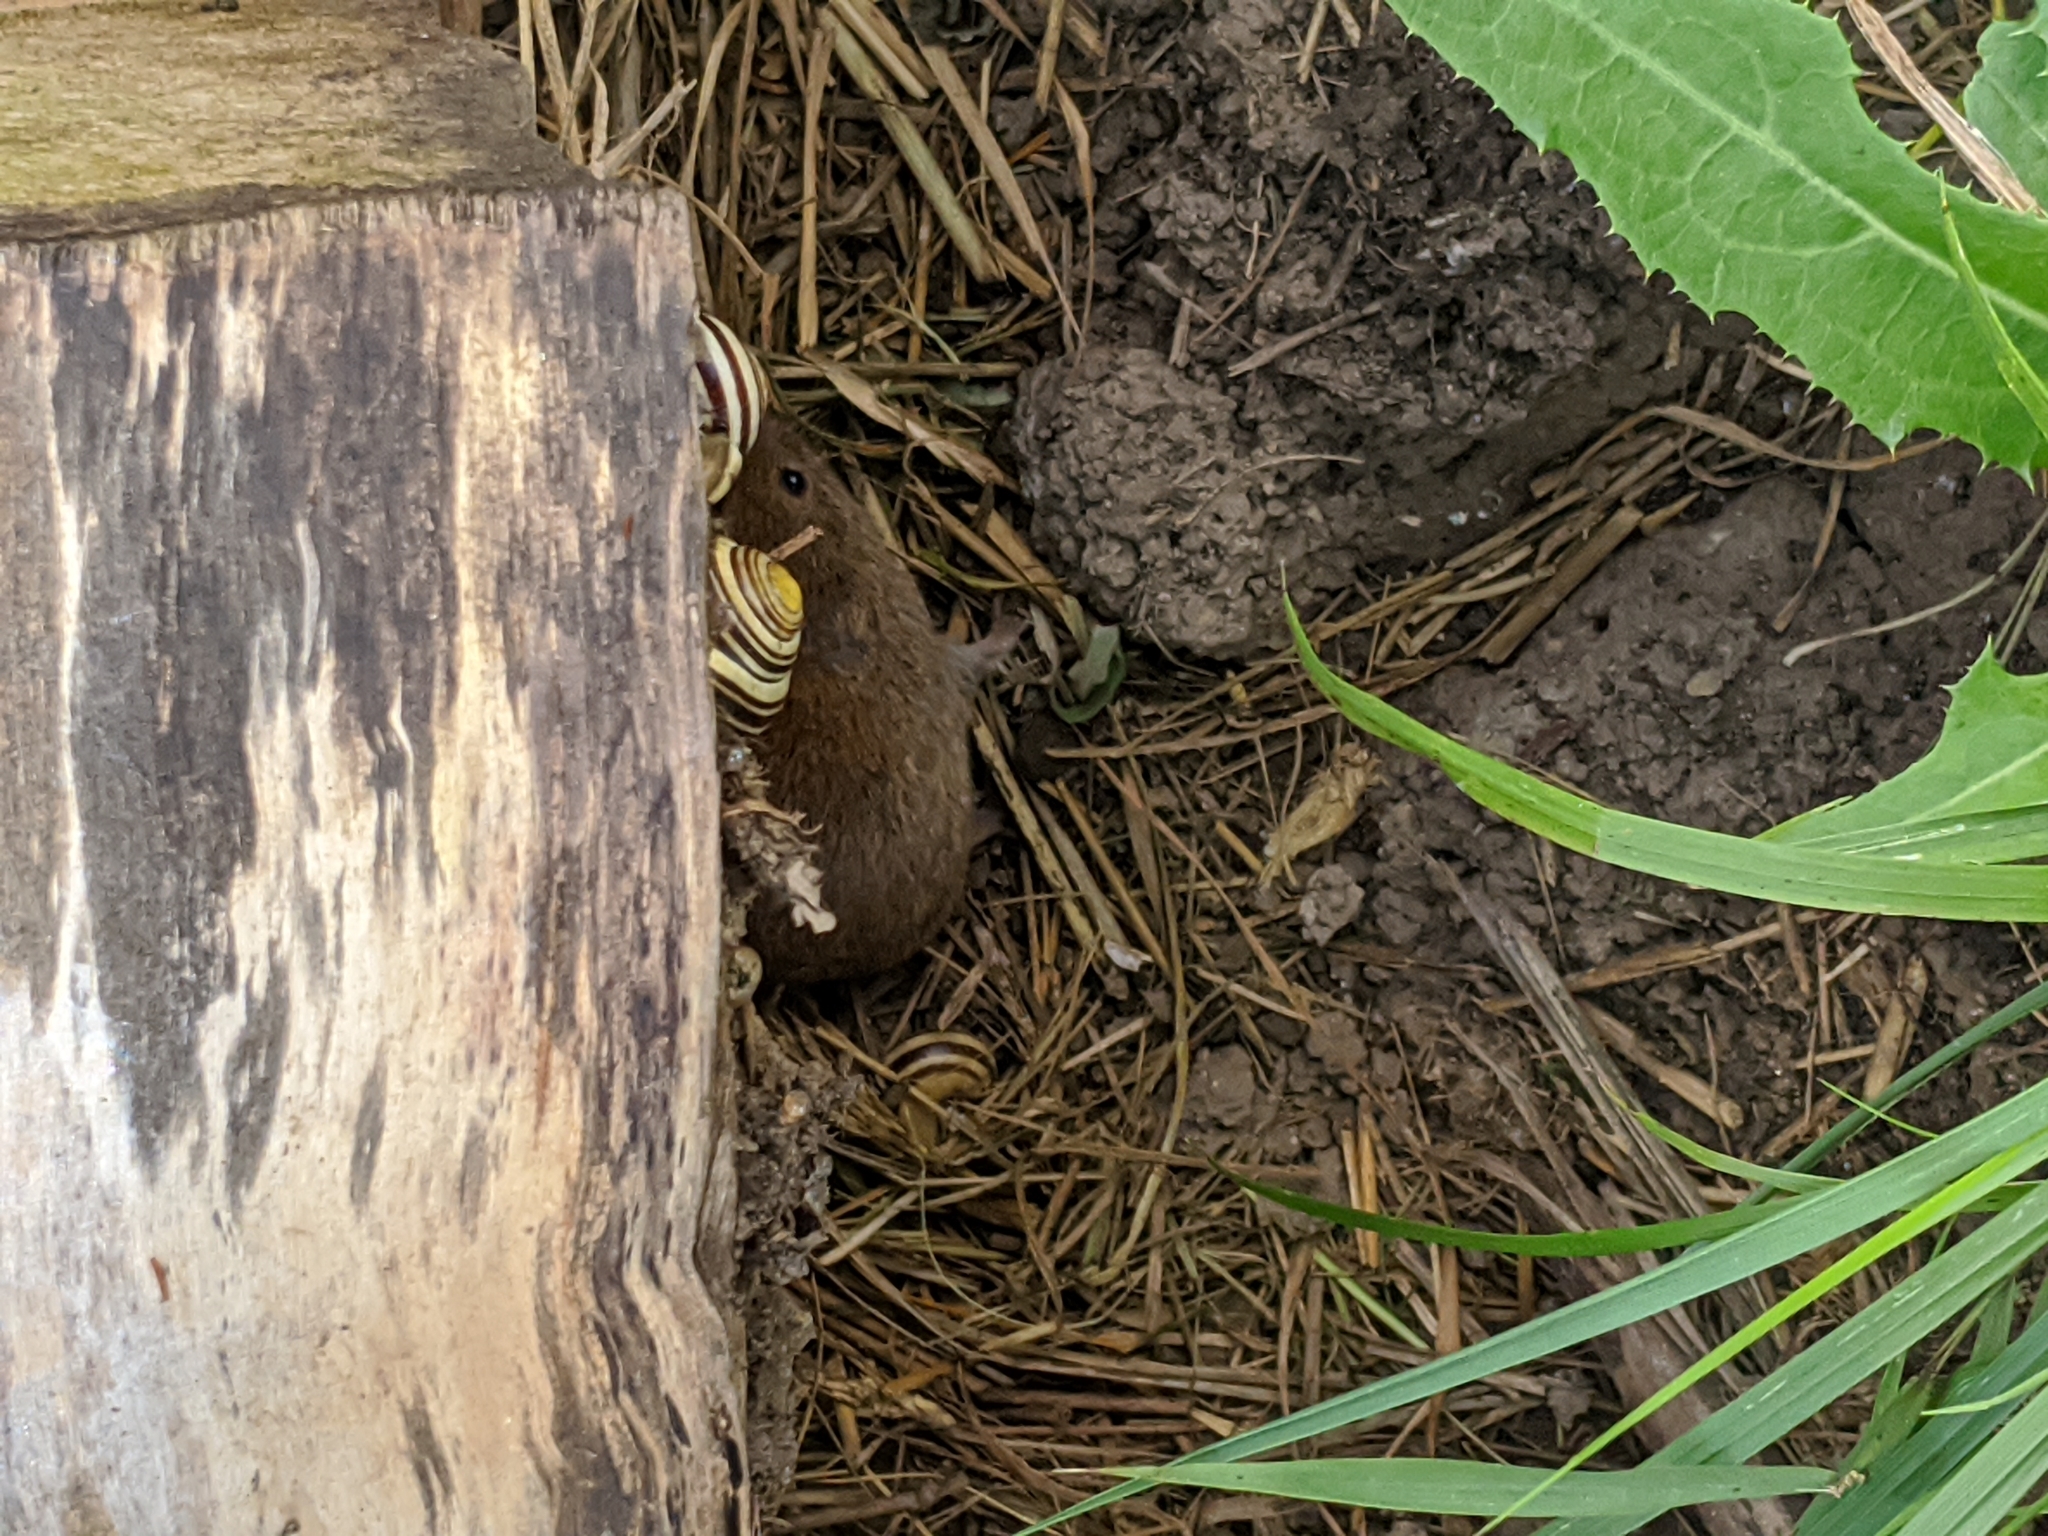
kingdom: Animalia
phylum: Chordata
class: Mammalia
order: Rodentia
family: Cricetidae
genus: Microtus
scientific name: Microtus pennsylvanicus
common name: Meadow vole
